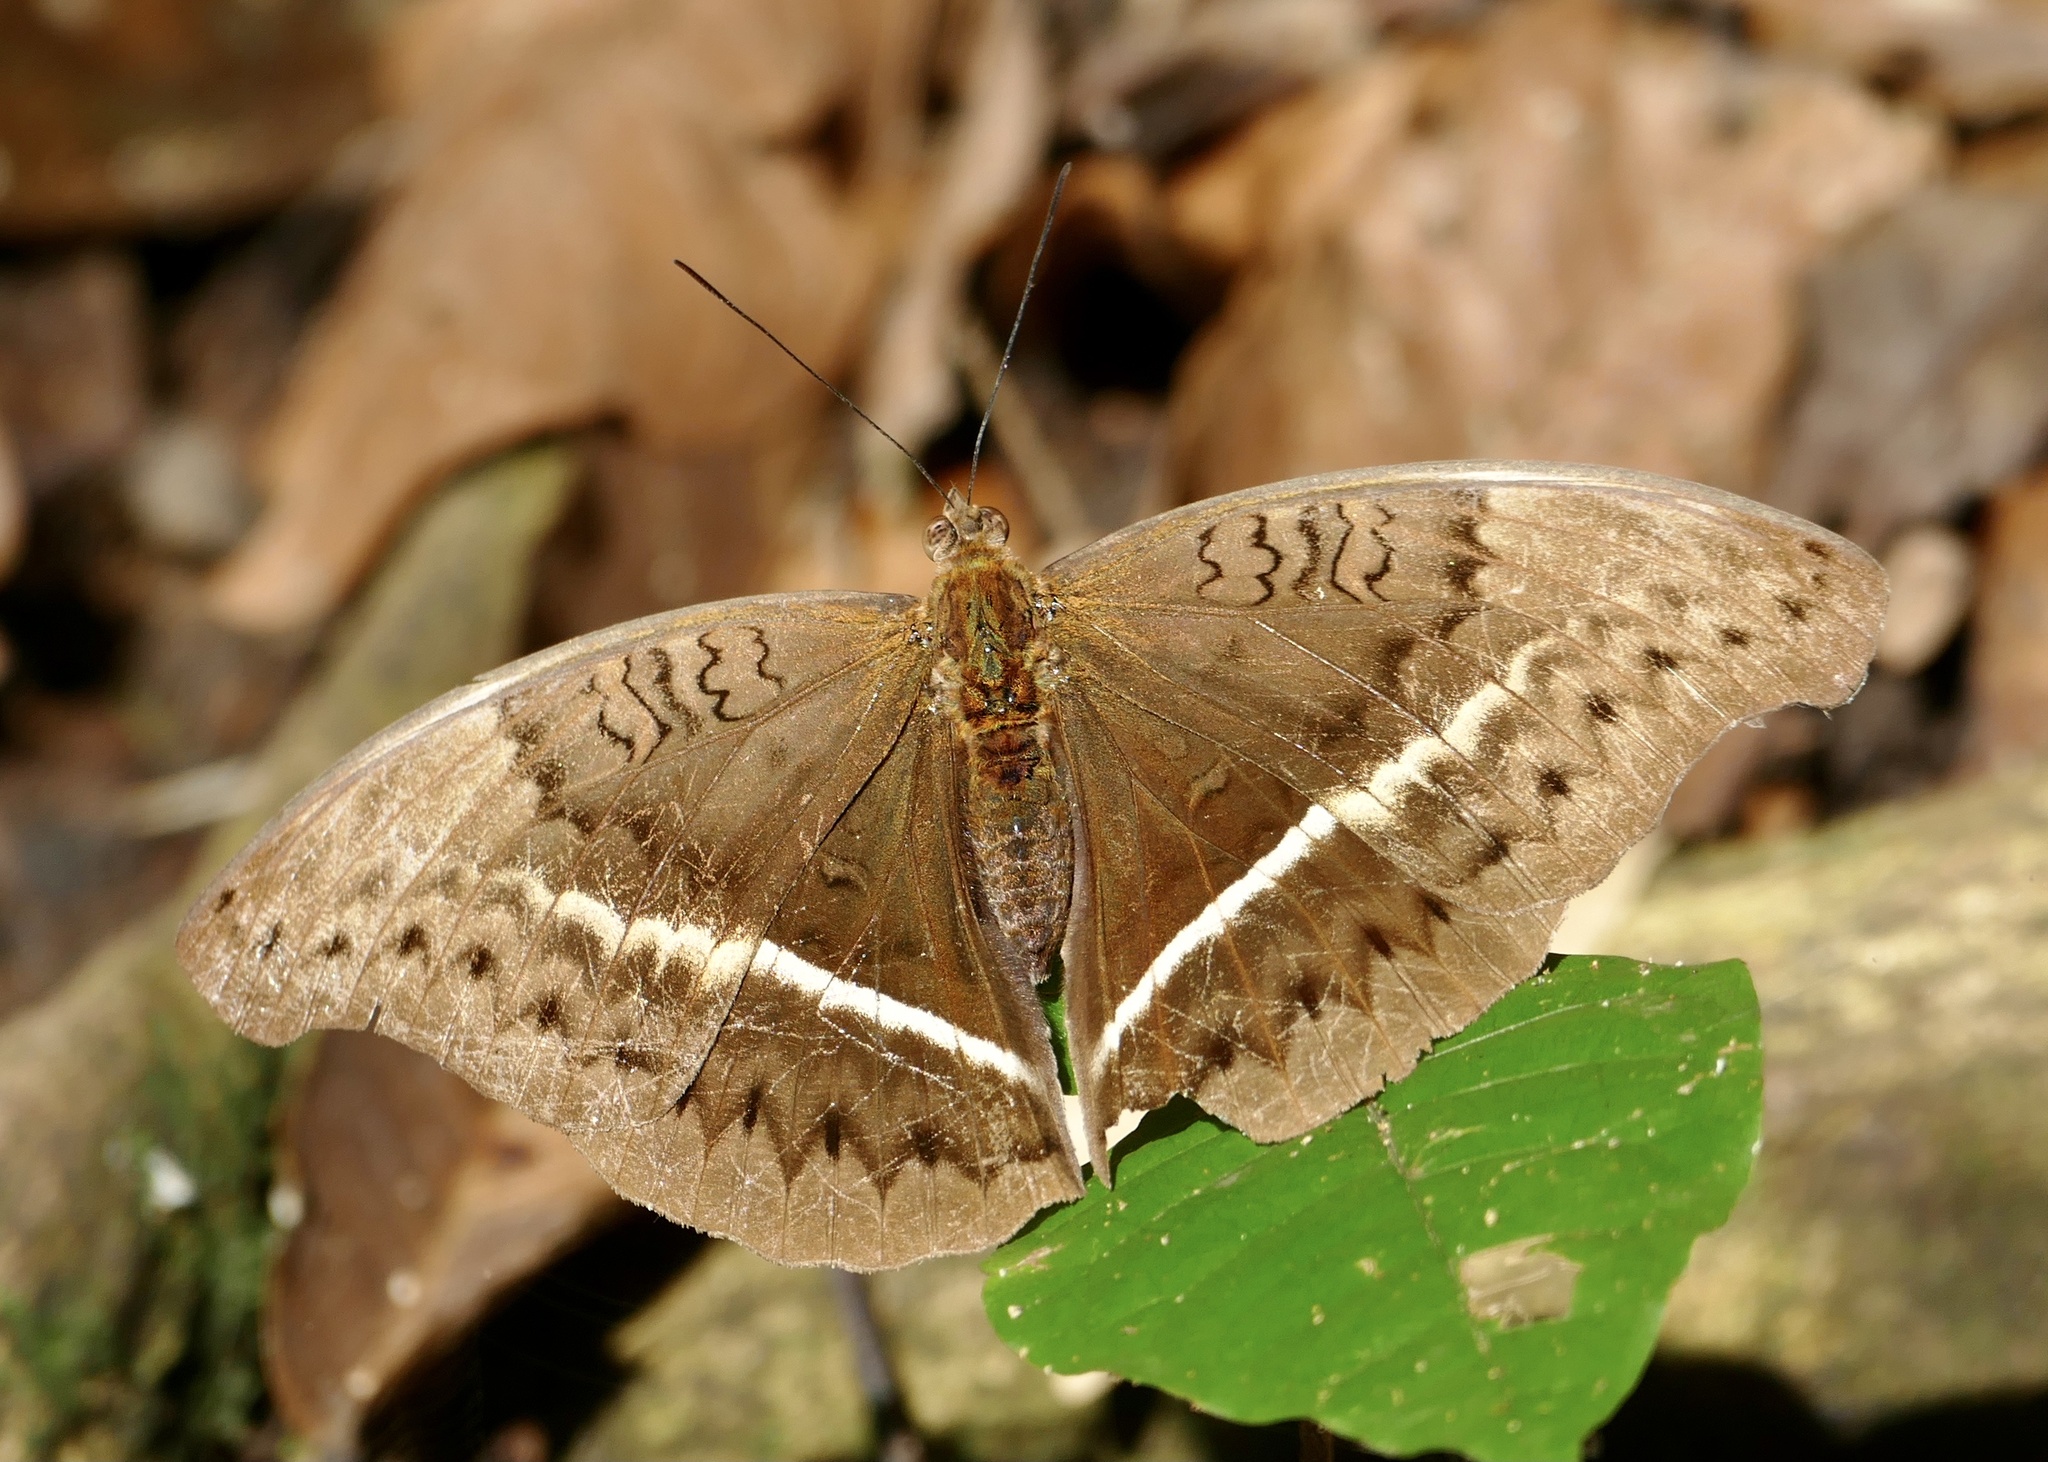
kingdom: Animalia
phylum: Arthropoda
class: Insecta
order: Lepidoptera
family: Nymphalidae
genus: Cymothoe
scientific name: Cymothoe egesta
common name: Common yellow glider
